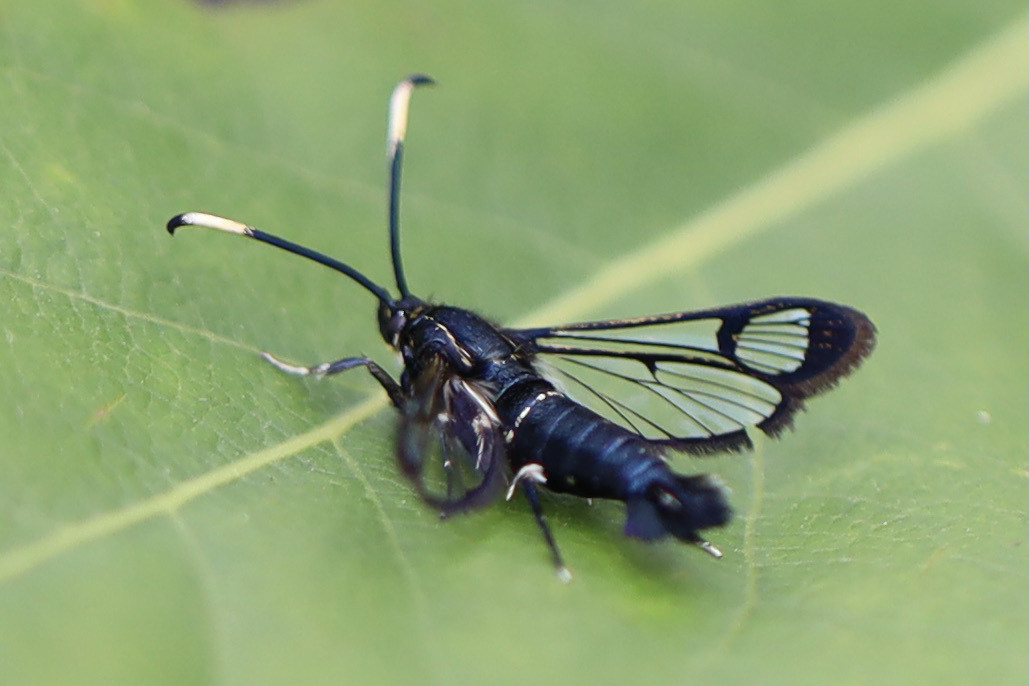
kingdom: Animalia
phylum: Arthropoda
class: Insecta
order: Lepidoptera
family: Sesiidae
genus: Synanthedon
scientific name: Synanthedon albicornis
